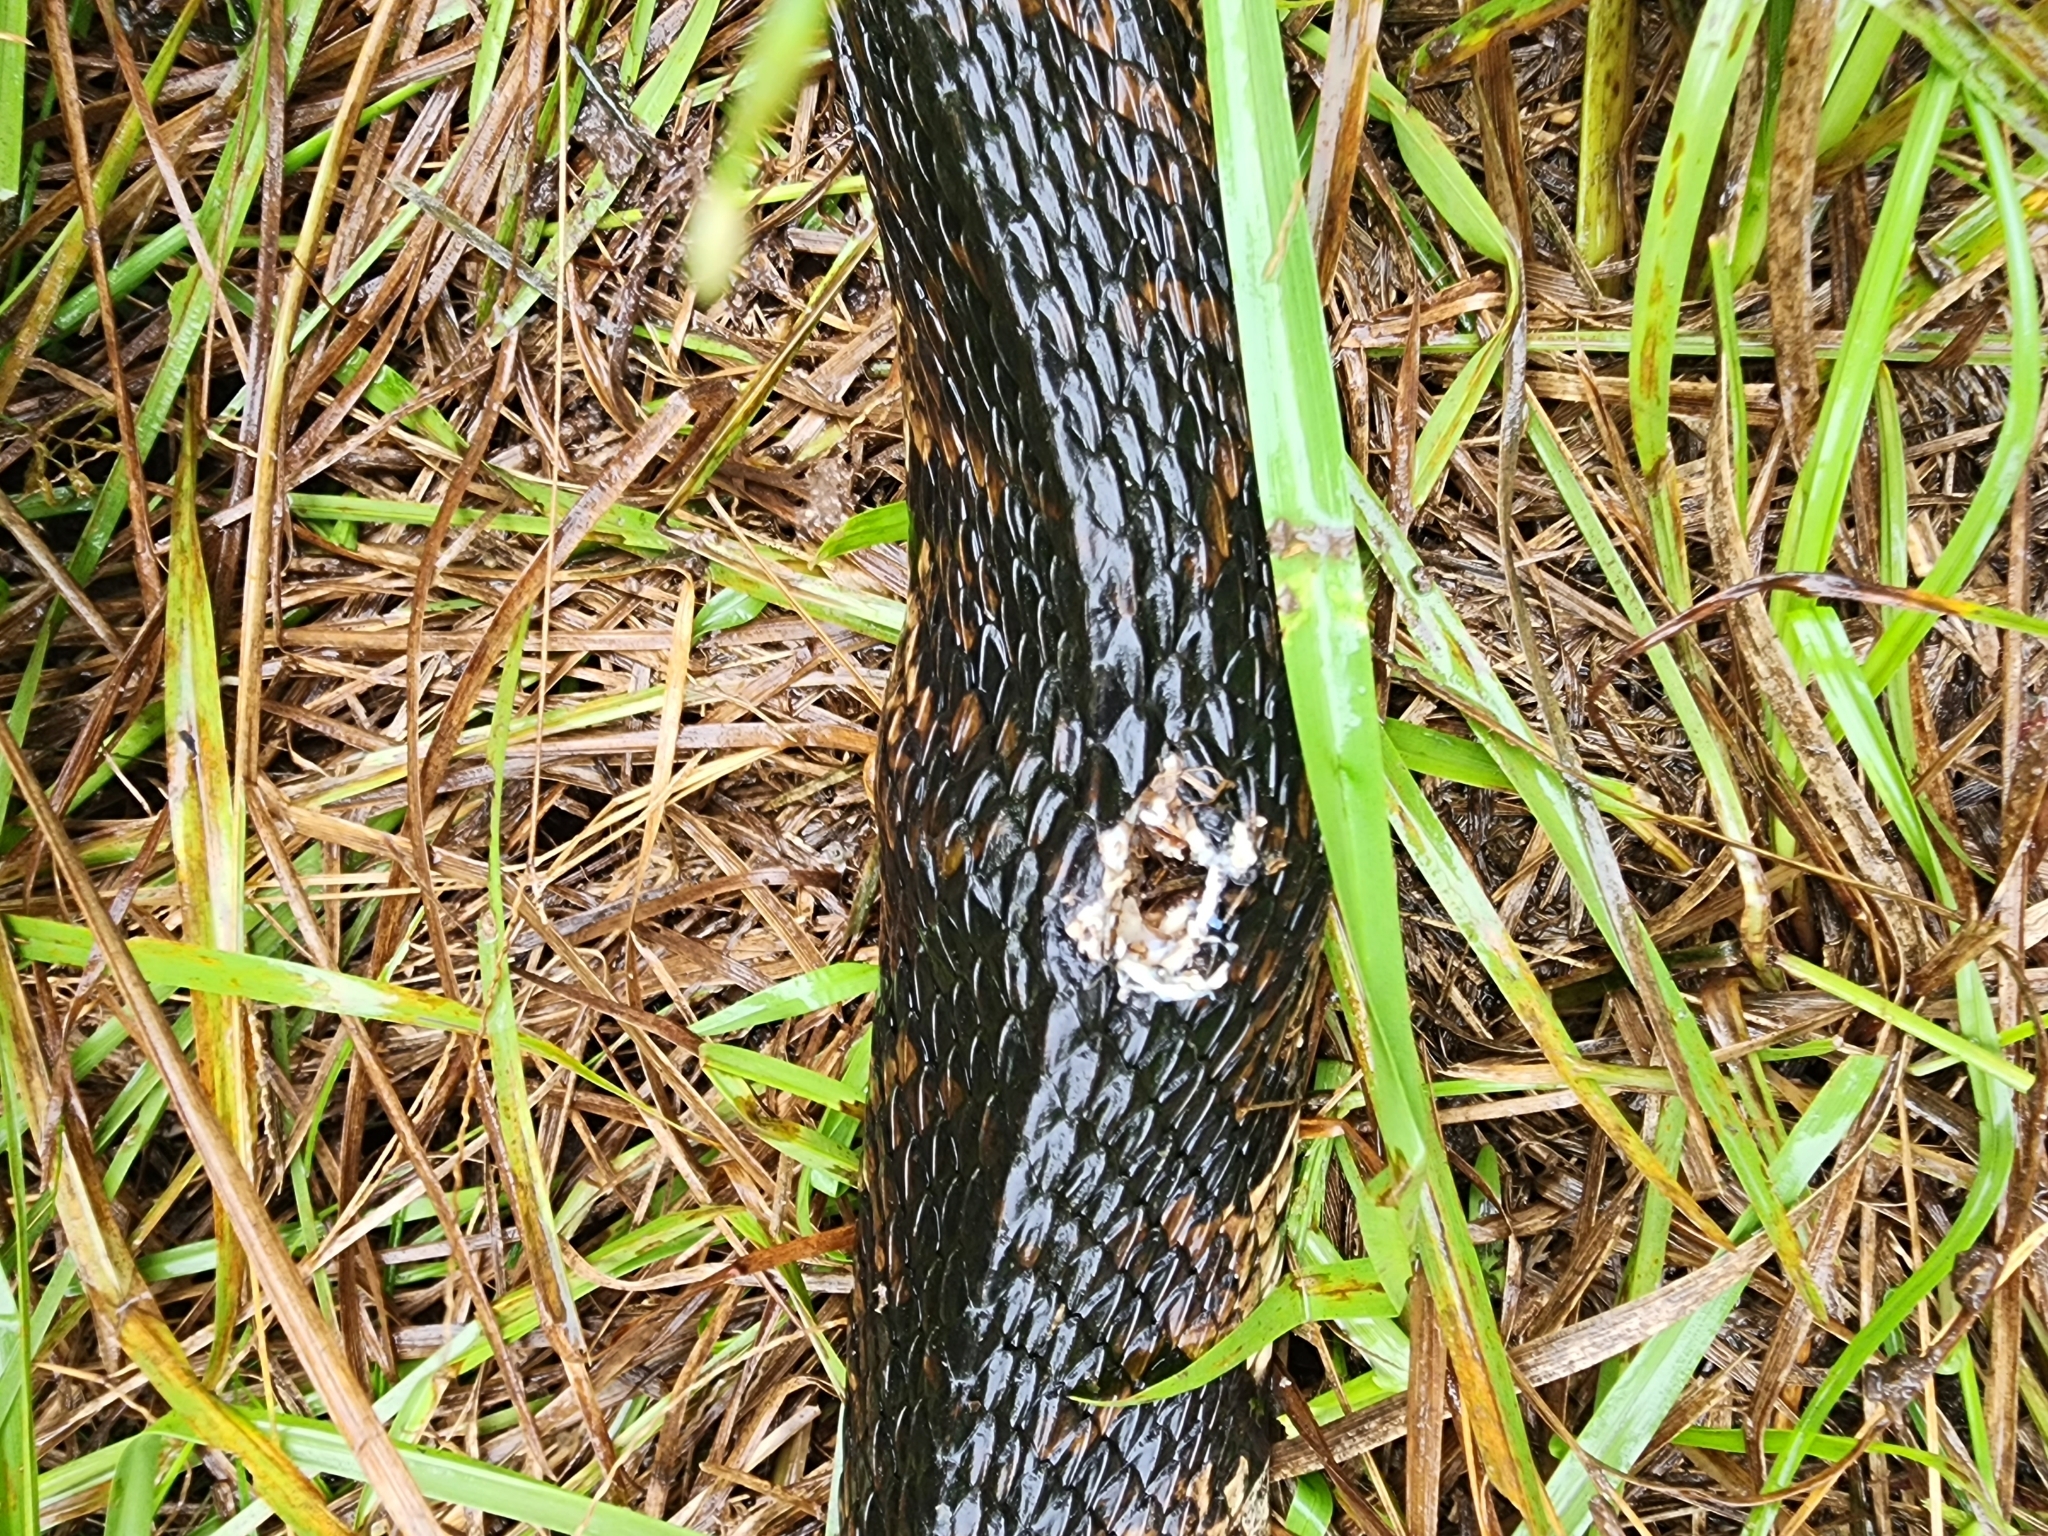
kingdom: Animalia
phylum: Chordata
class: Squamata
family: Viperidae
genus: Agkistrodon
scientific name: Agkistrodon conanti
